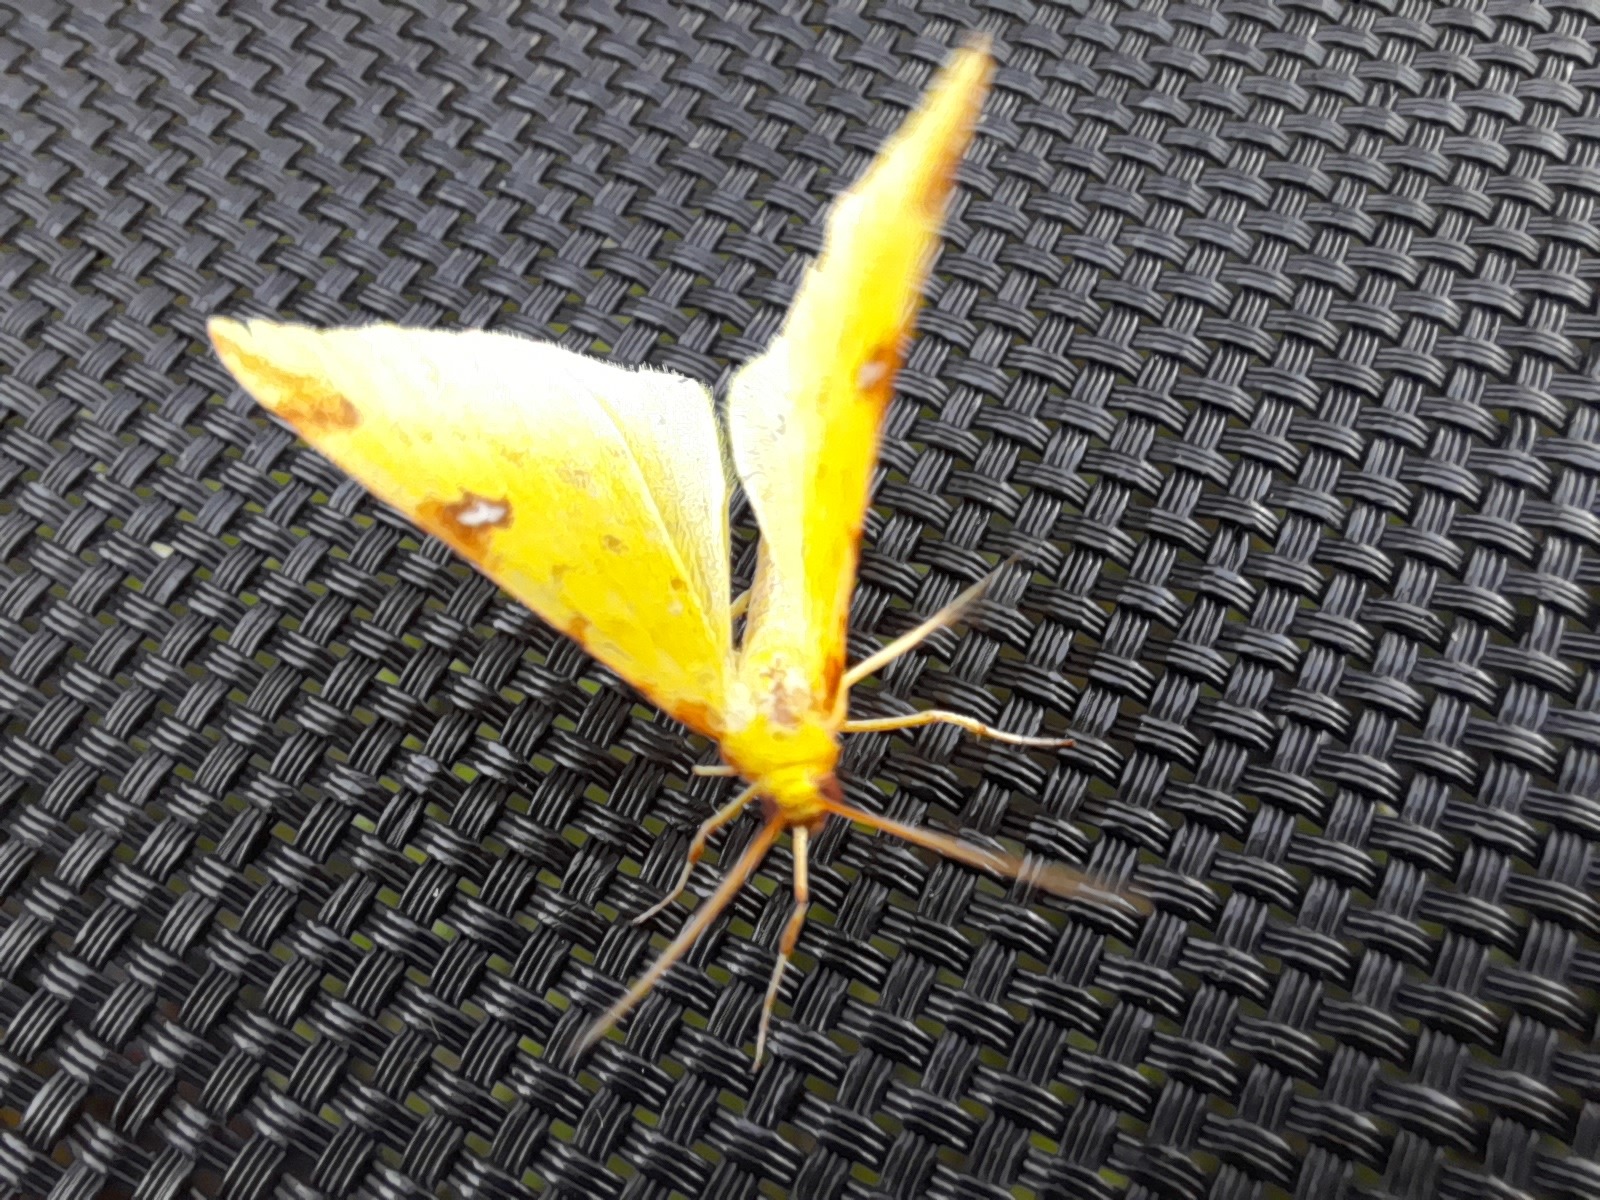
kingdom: Animalia
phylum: Arthropoda
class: Insecta
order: Lepidoptera
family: Geometridae
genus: Opisthograptis
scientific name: Opisthograptis luteolata
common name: Brimstone moth
